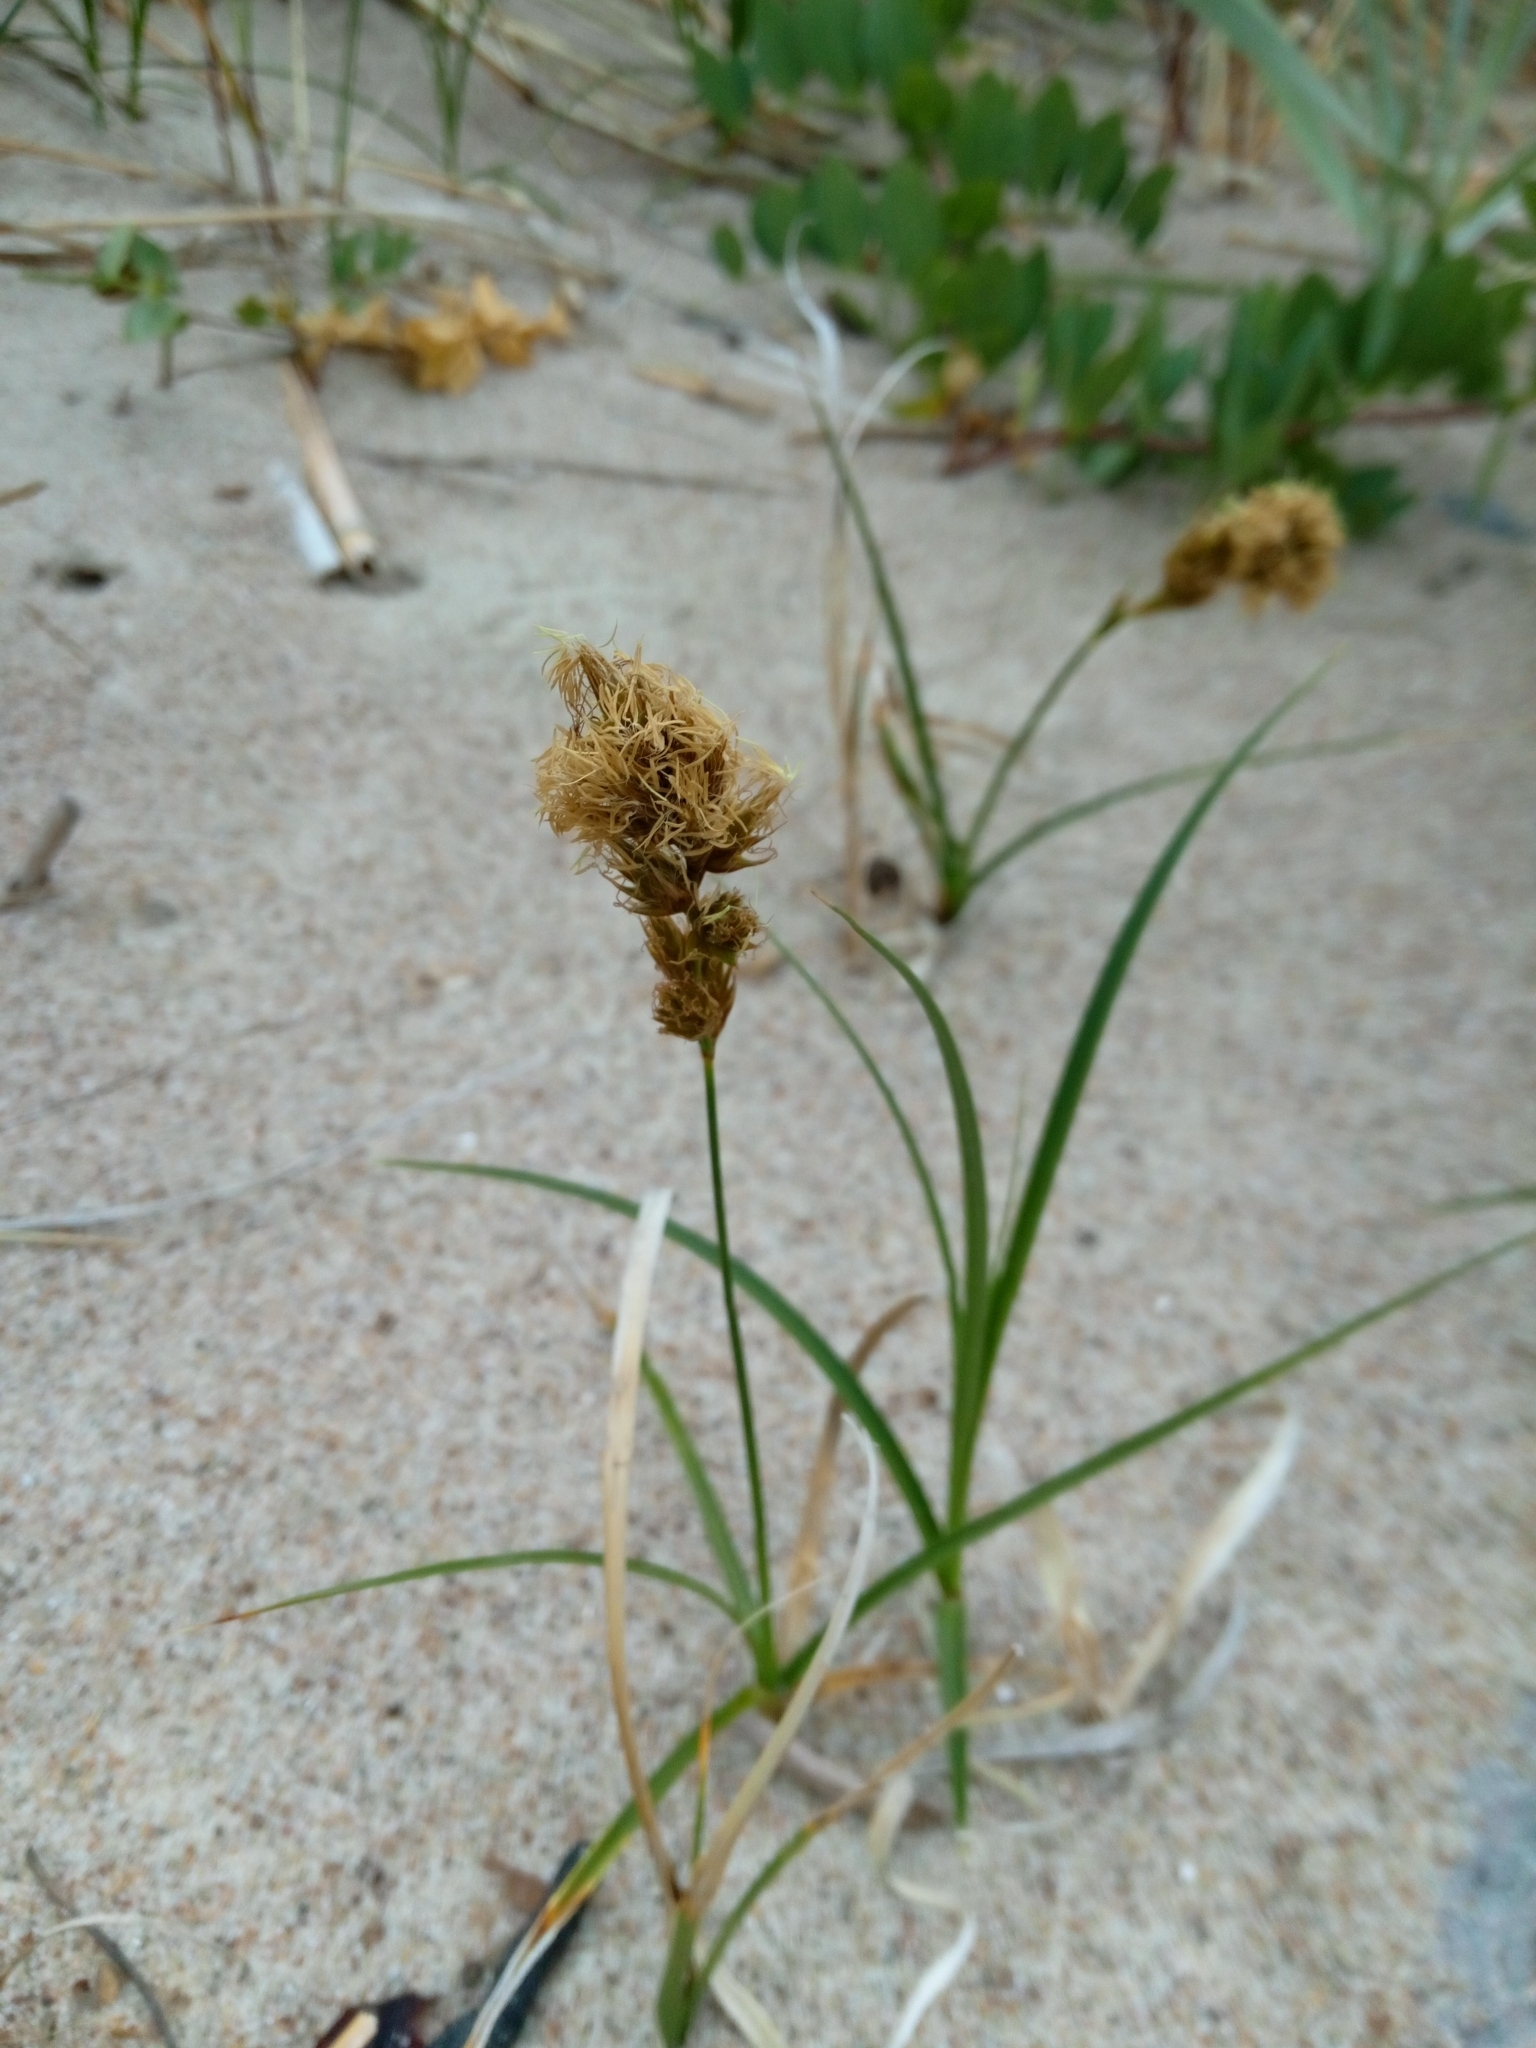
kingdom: Plantae
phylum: Tracheophyta
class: Liliopsida
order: Poales
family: Cyperaceae
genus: Carex
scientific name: Carex arenaria
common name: Sand sedge
